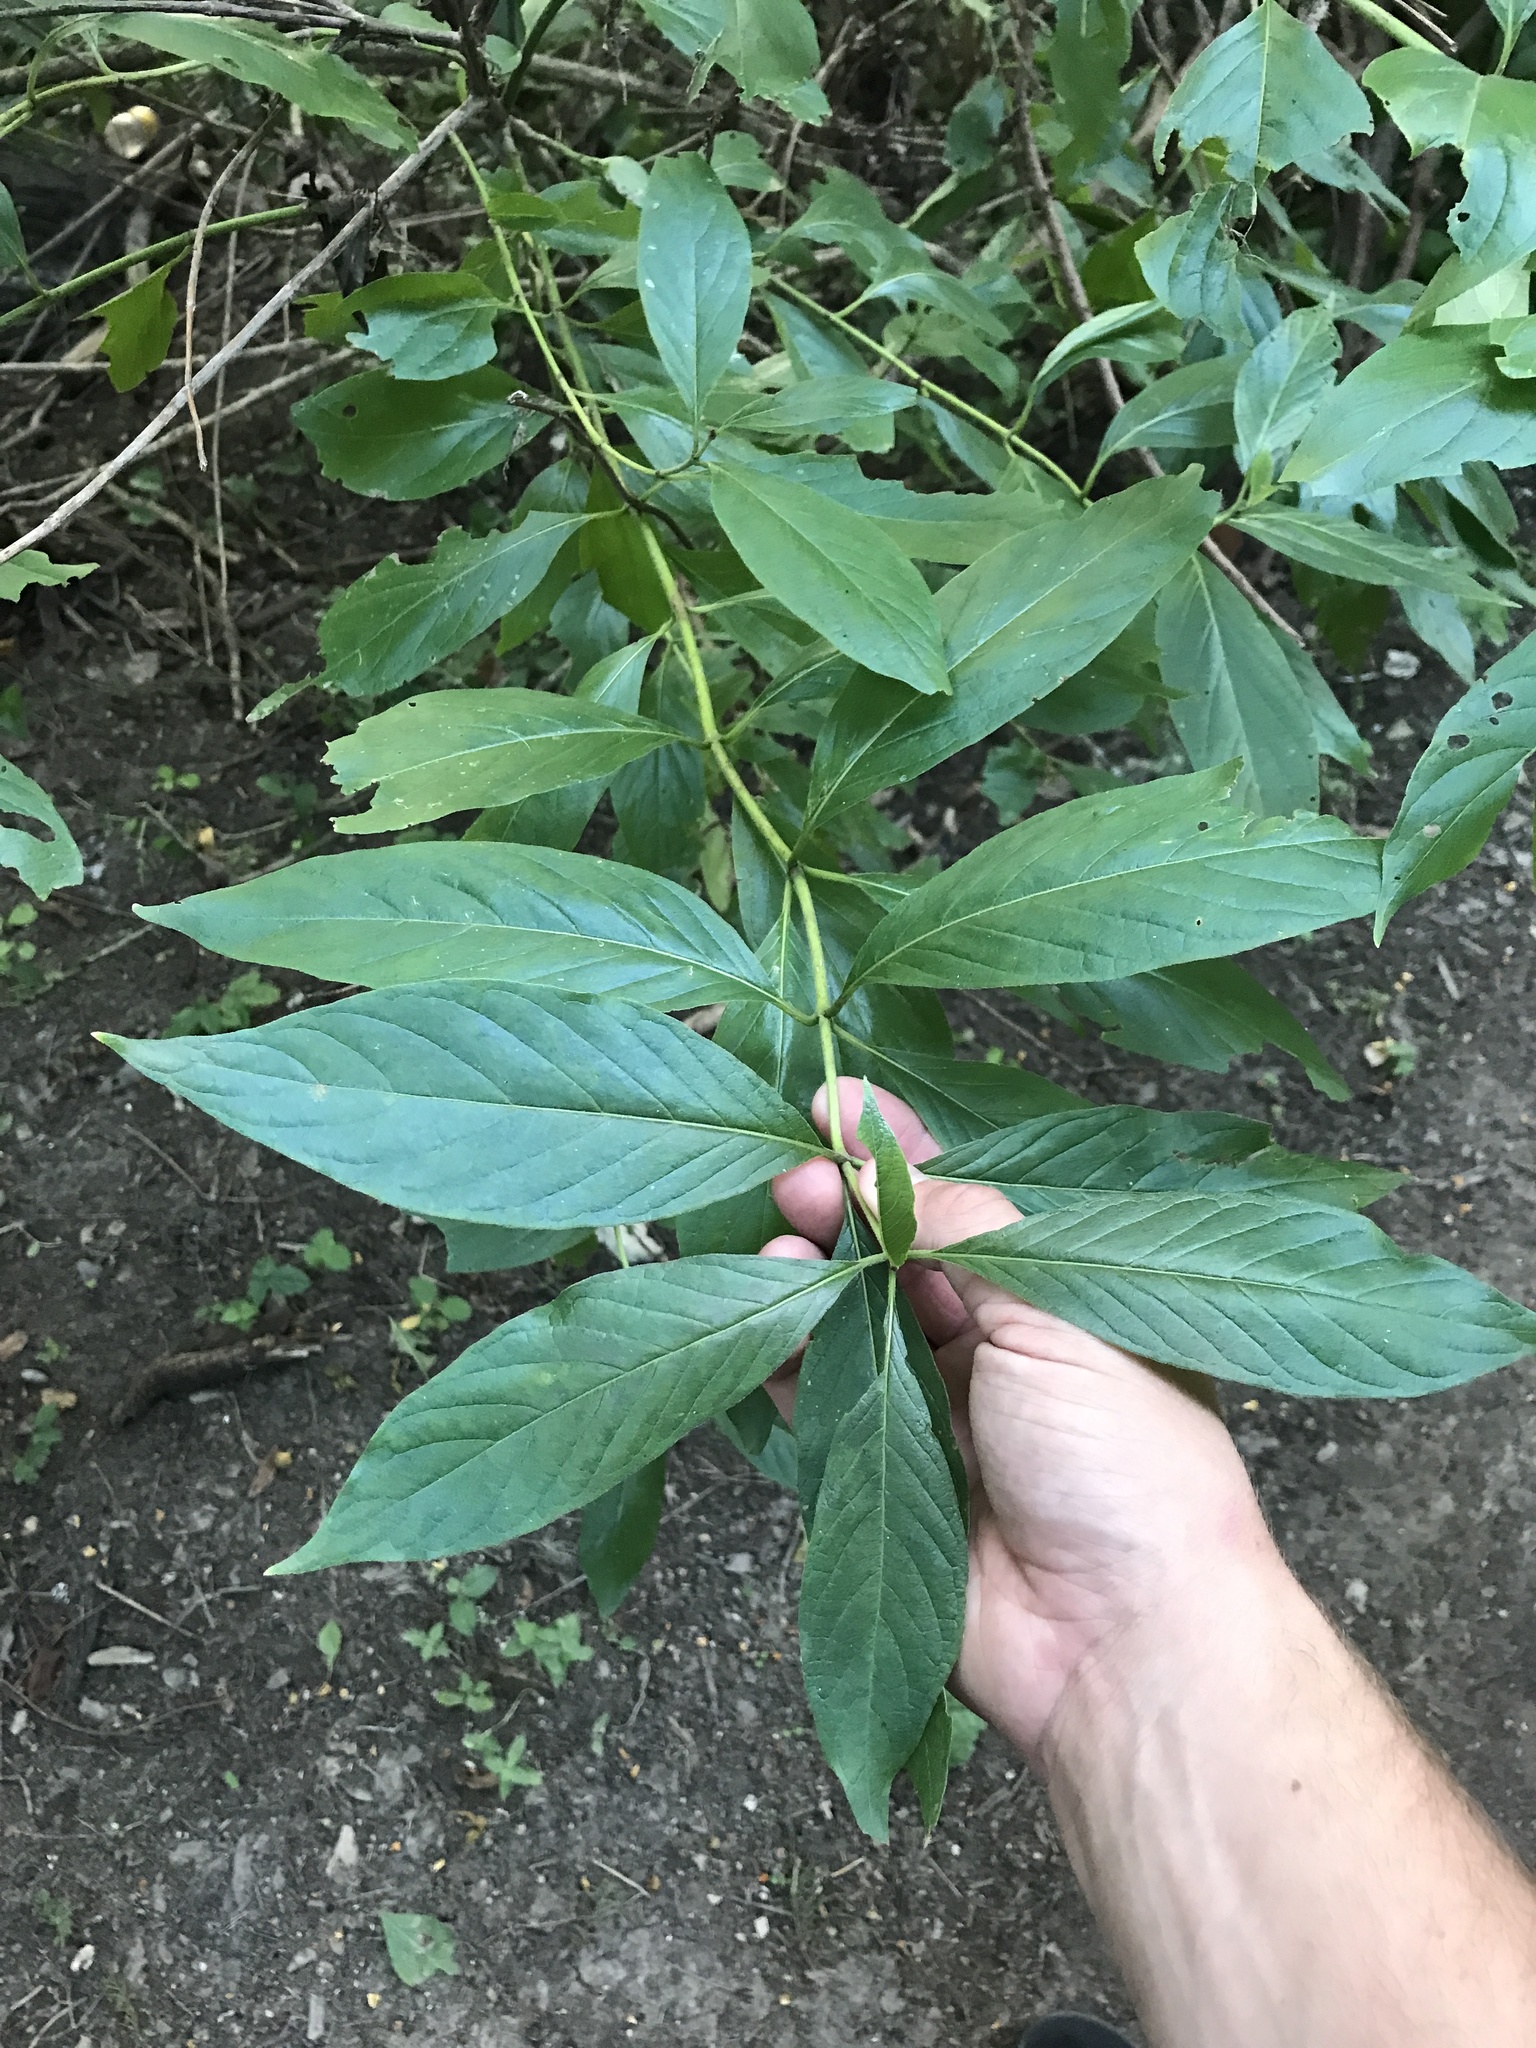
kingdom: Plantae
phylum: Tracheophyta
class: Magnoliopsida
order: Gentianales
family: Rubiaceae
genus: Cephalanthus
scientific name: Cephalanthus occidentalis
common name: Button-willow
